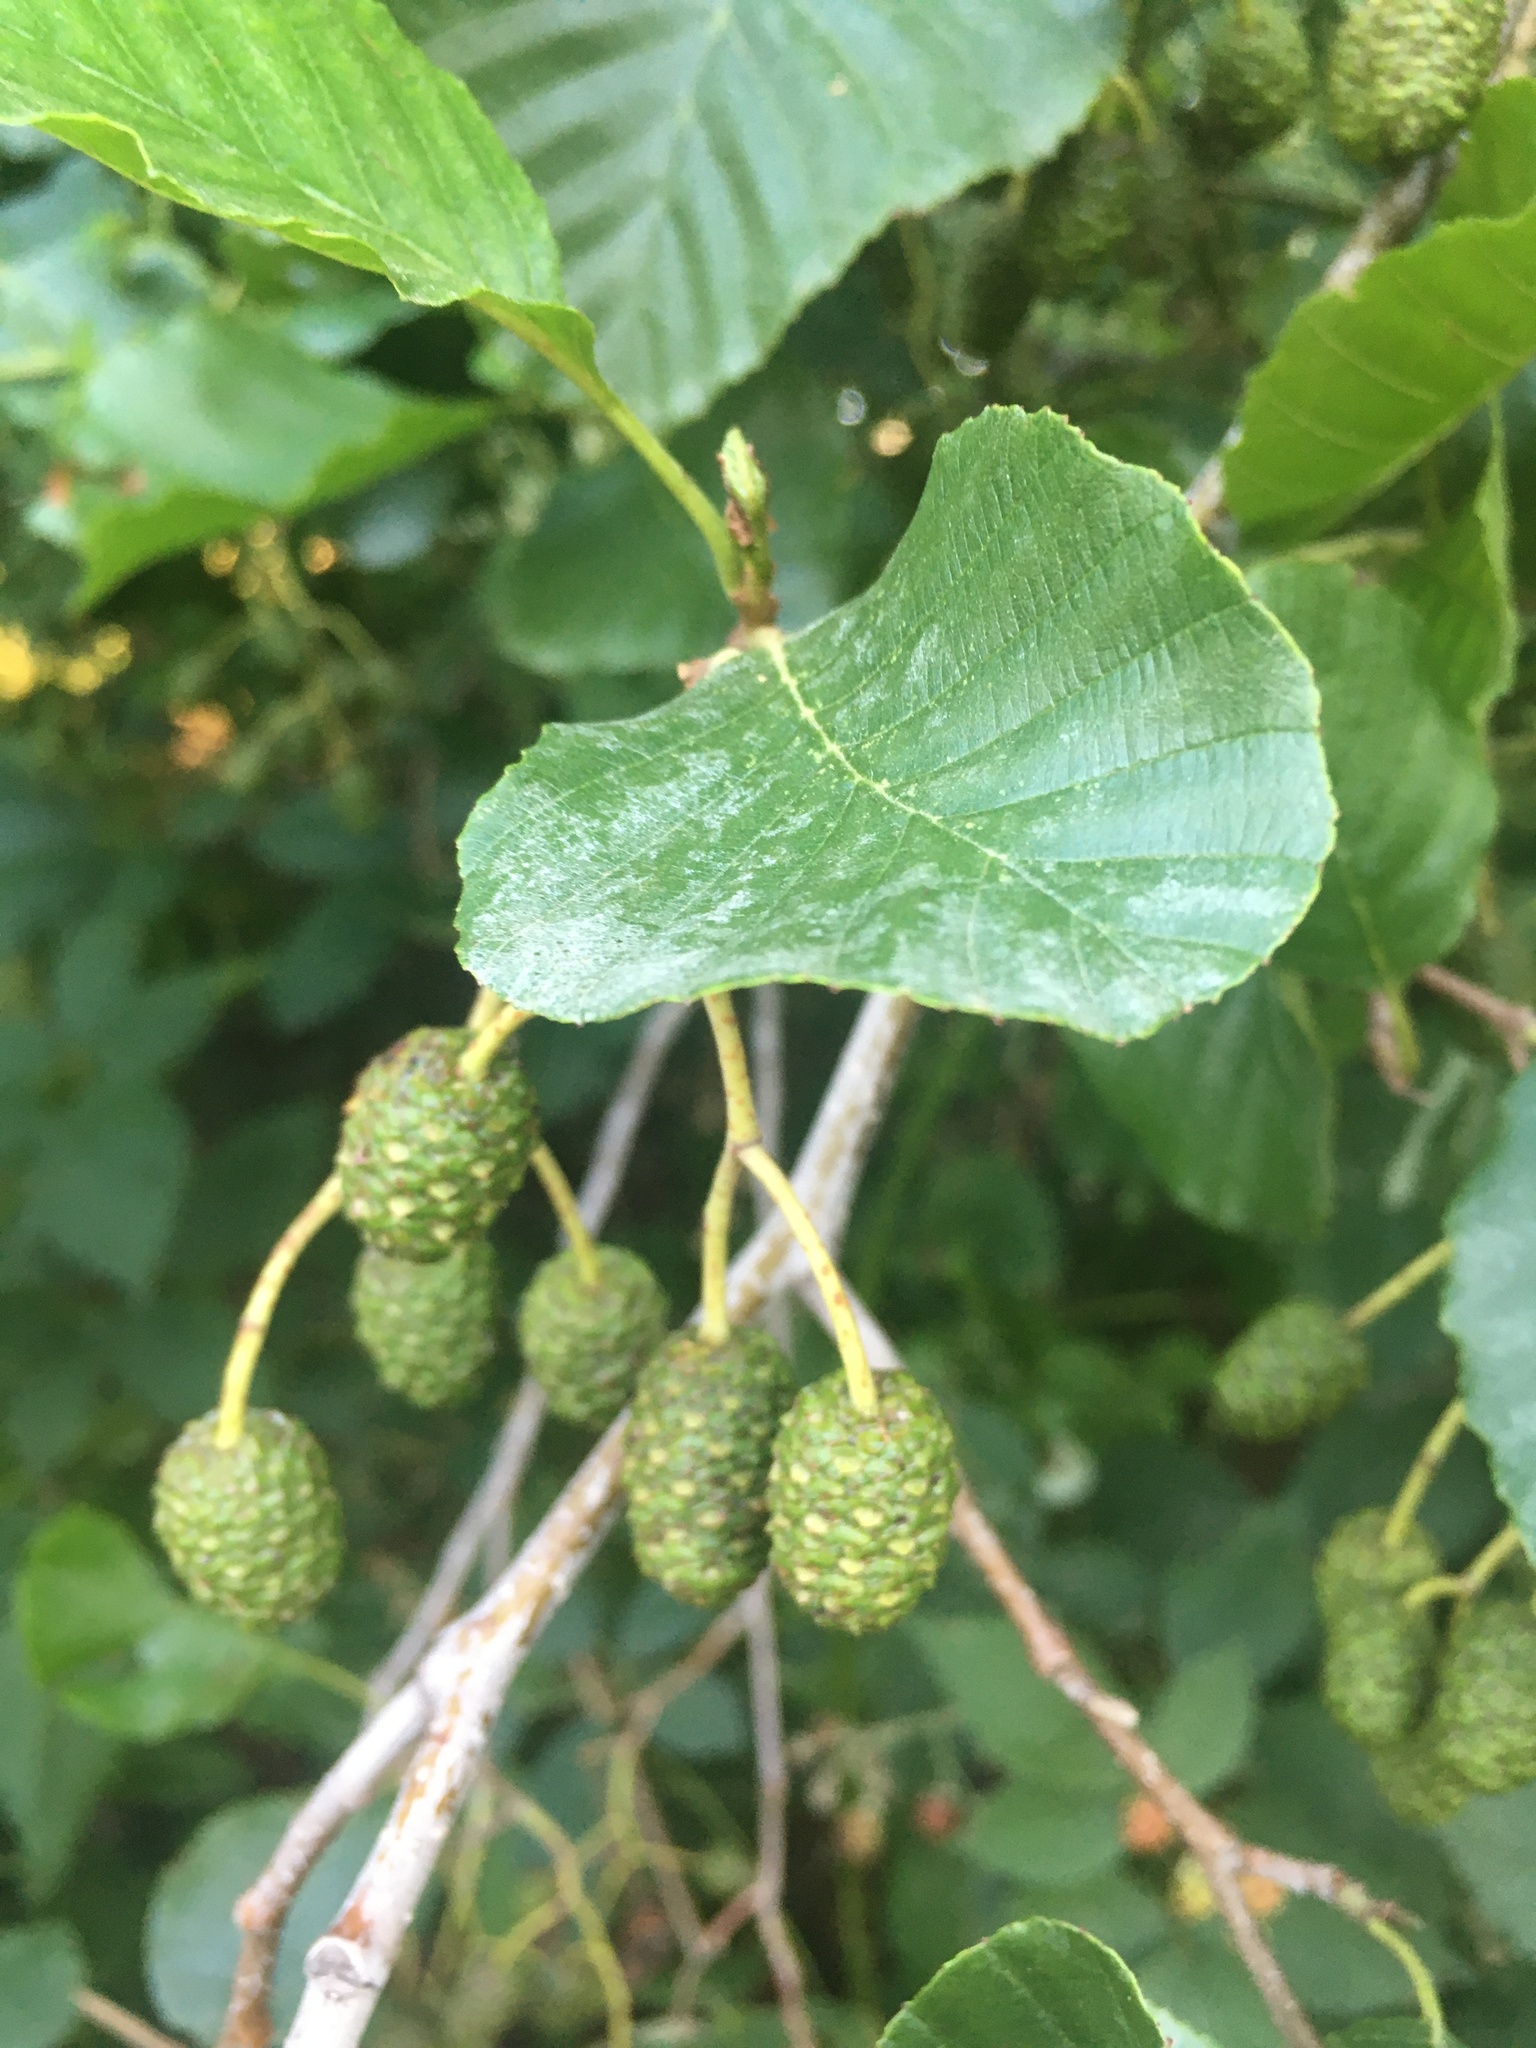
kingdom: Plantae
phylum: Tracheophyta
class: Magnoliopsida
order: Fagales
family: Betulaceae
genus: Alnus
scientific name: Alnus glutinosa
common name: Black alder
